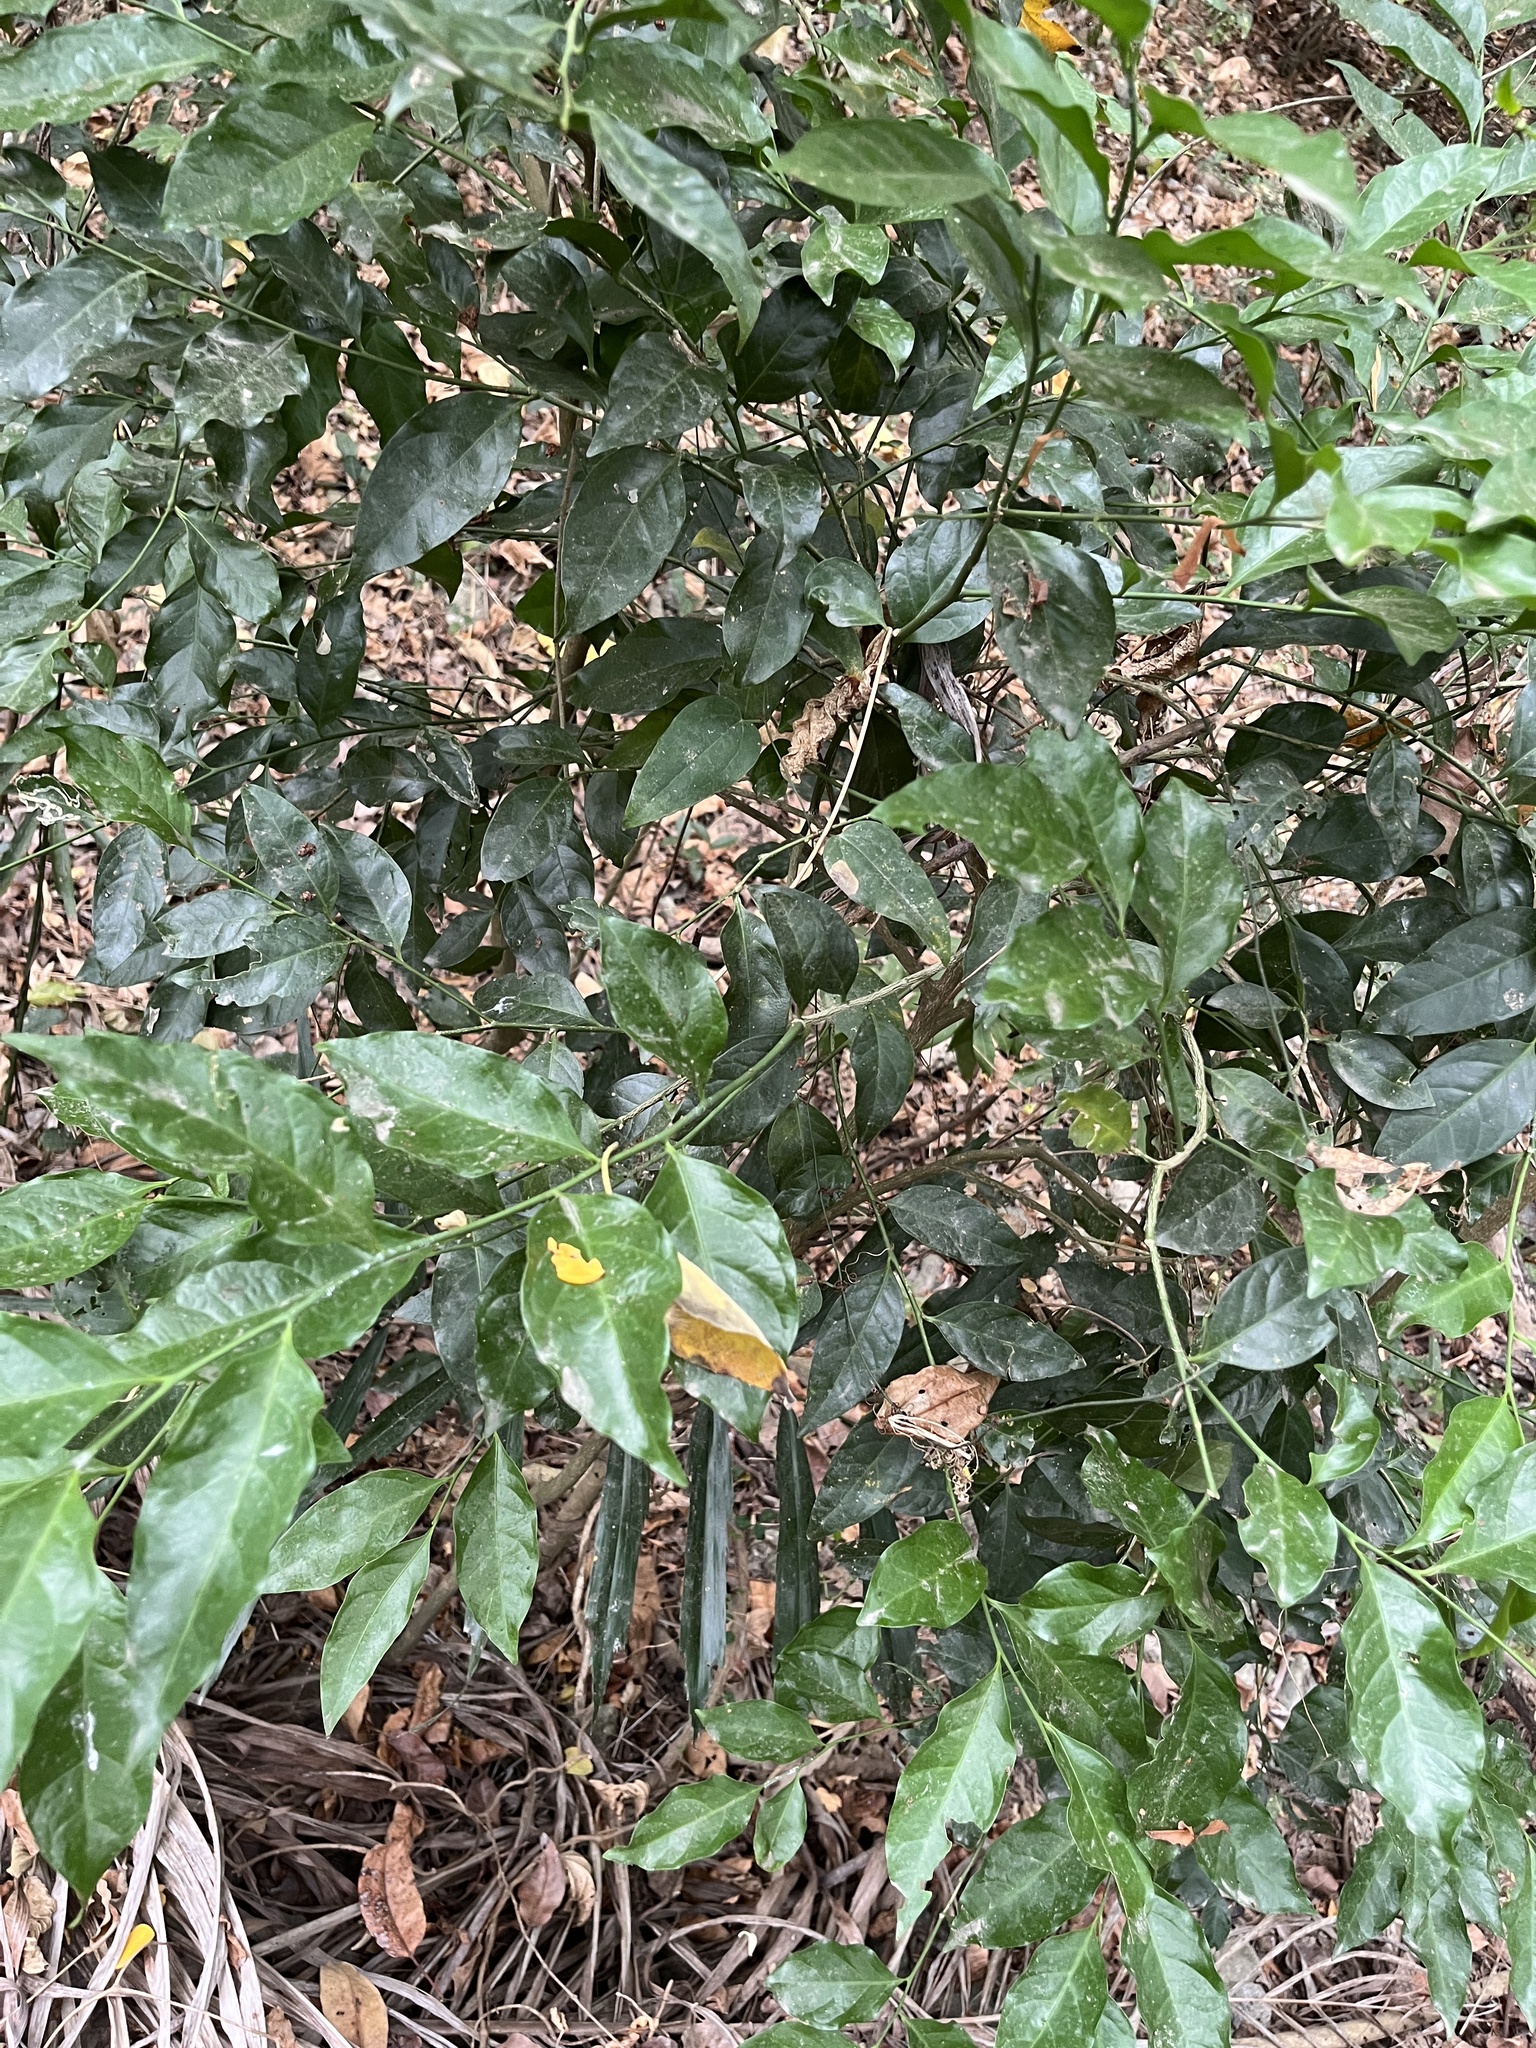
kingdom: Plantae
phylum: Tracheophyta
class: Magnoliopsida
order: Santalales
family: Opiliaceae
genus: Champereia
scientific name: Champereia manillana
